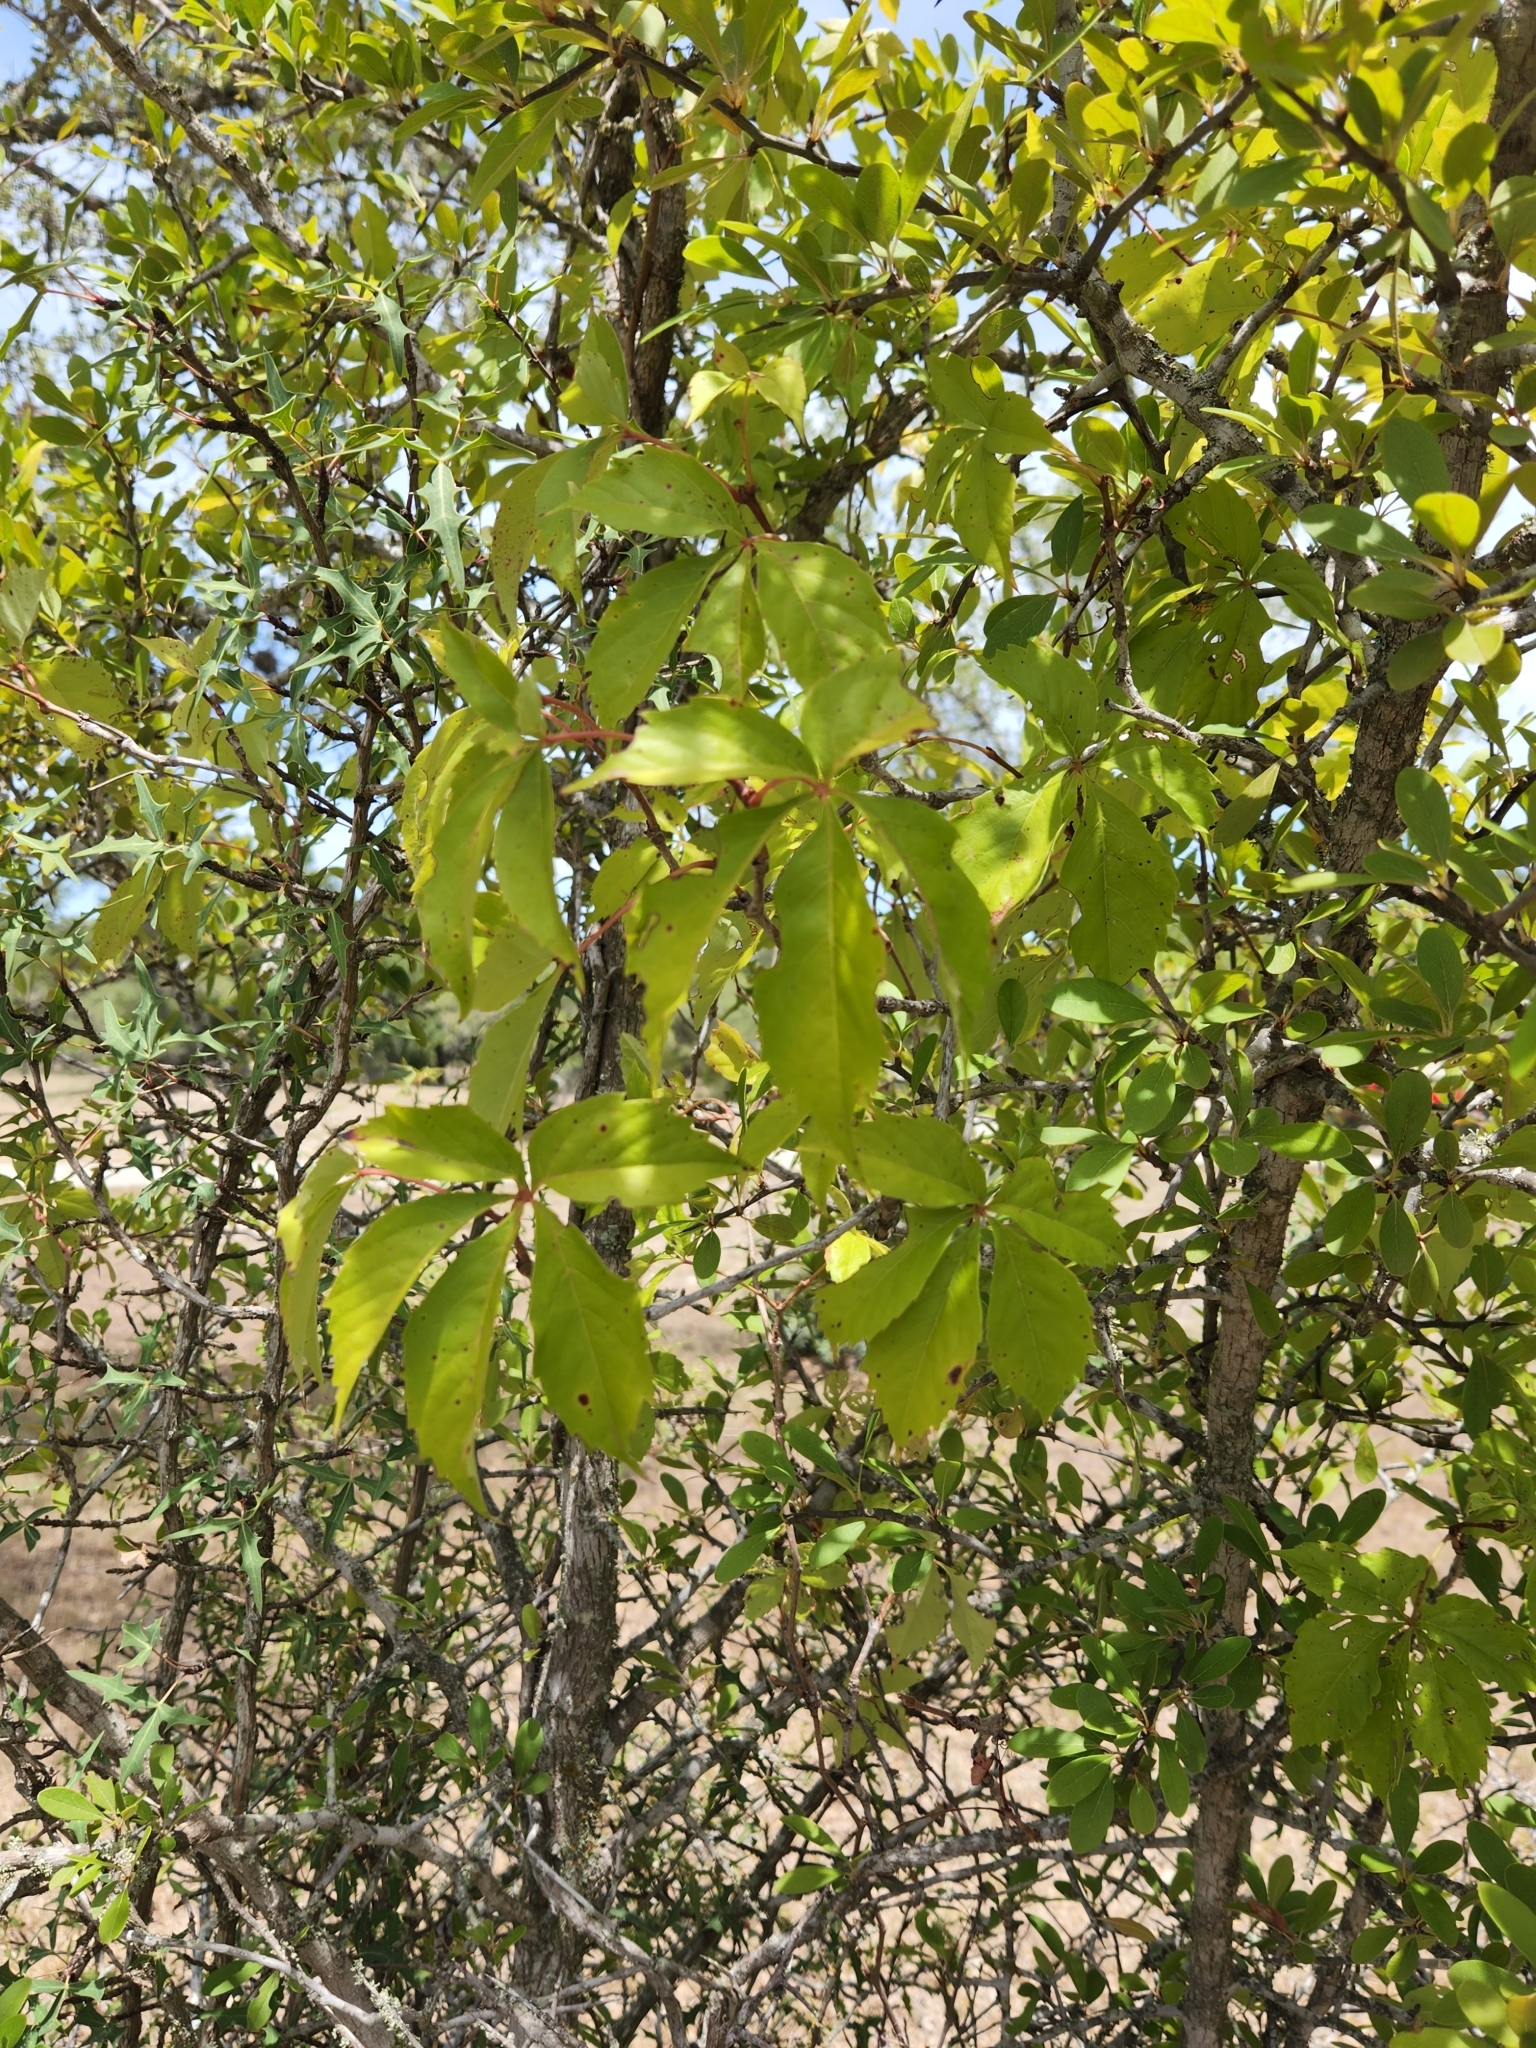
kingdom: Plantae
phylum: Tracheophyta
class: Magnoliopsida
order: Vitales
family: Vitaceae
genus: Parthenocissus
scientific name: Parthenocissus quinquefolia
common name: Virginia-creeper
